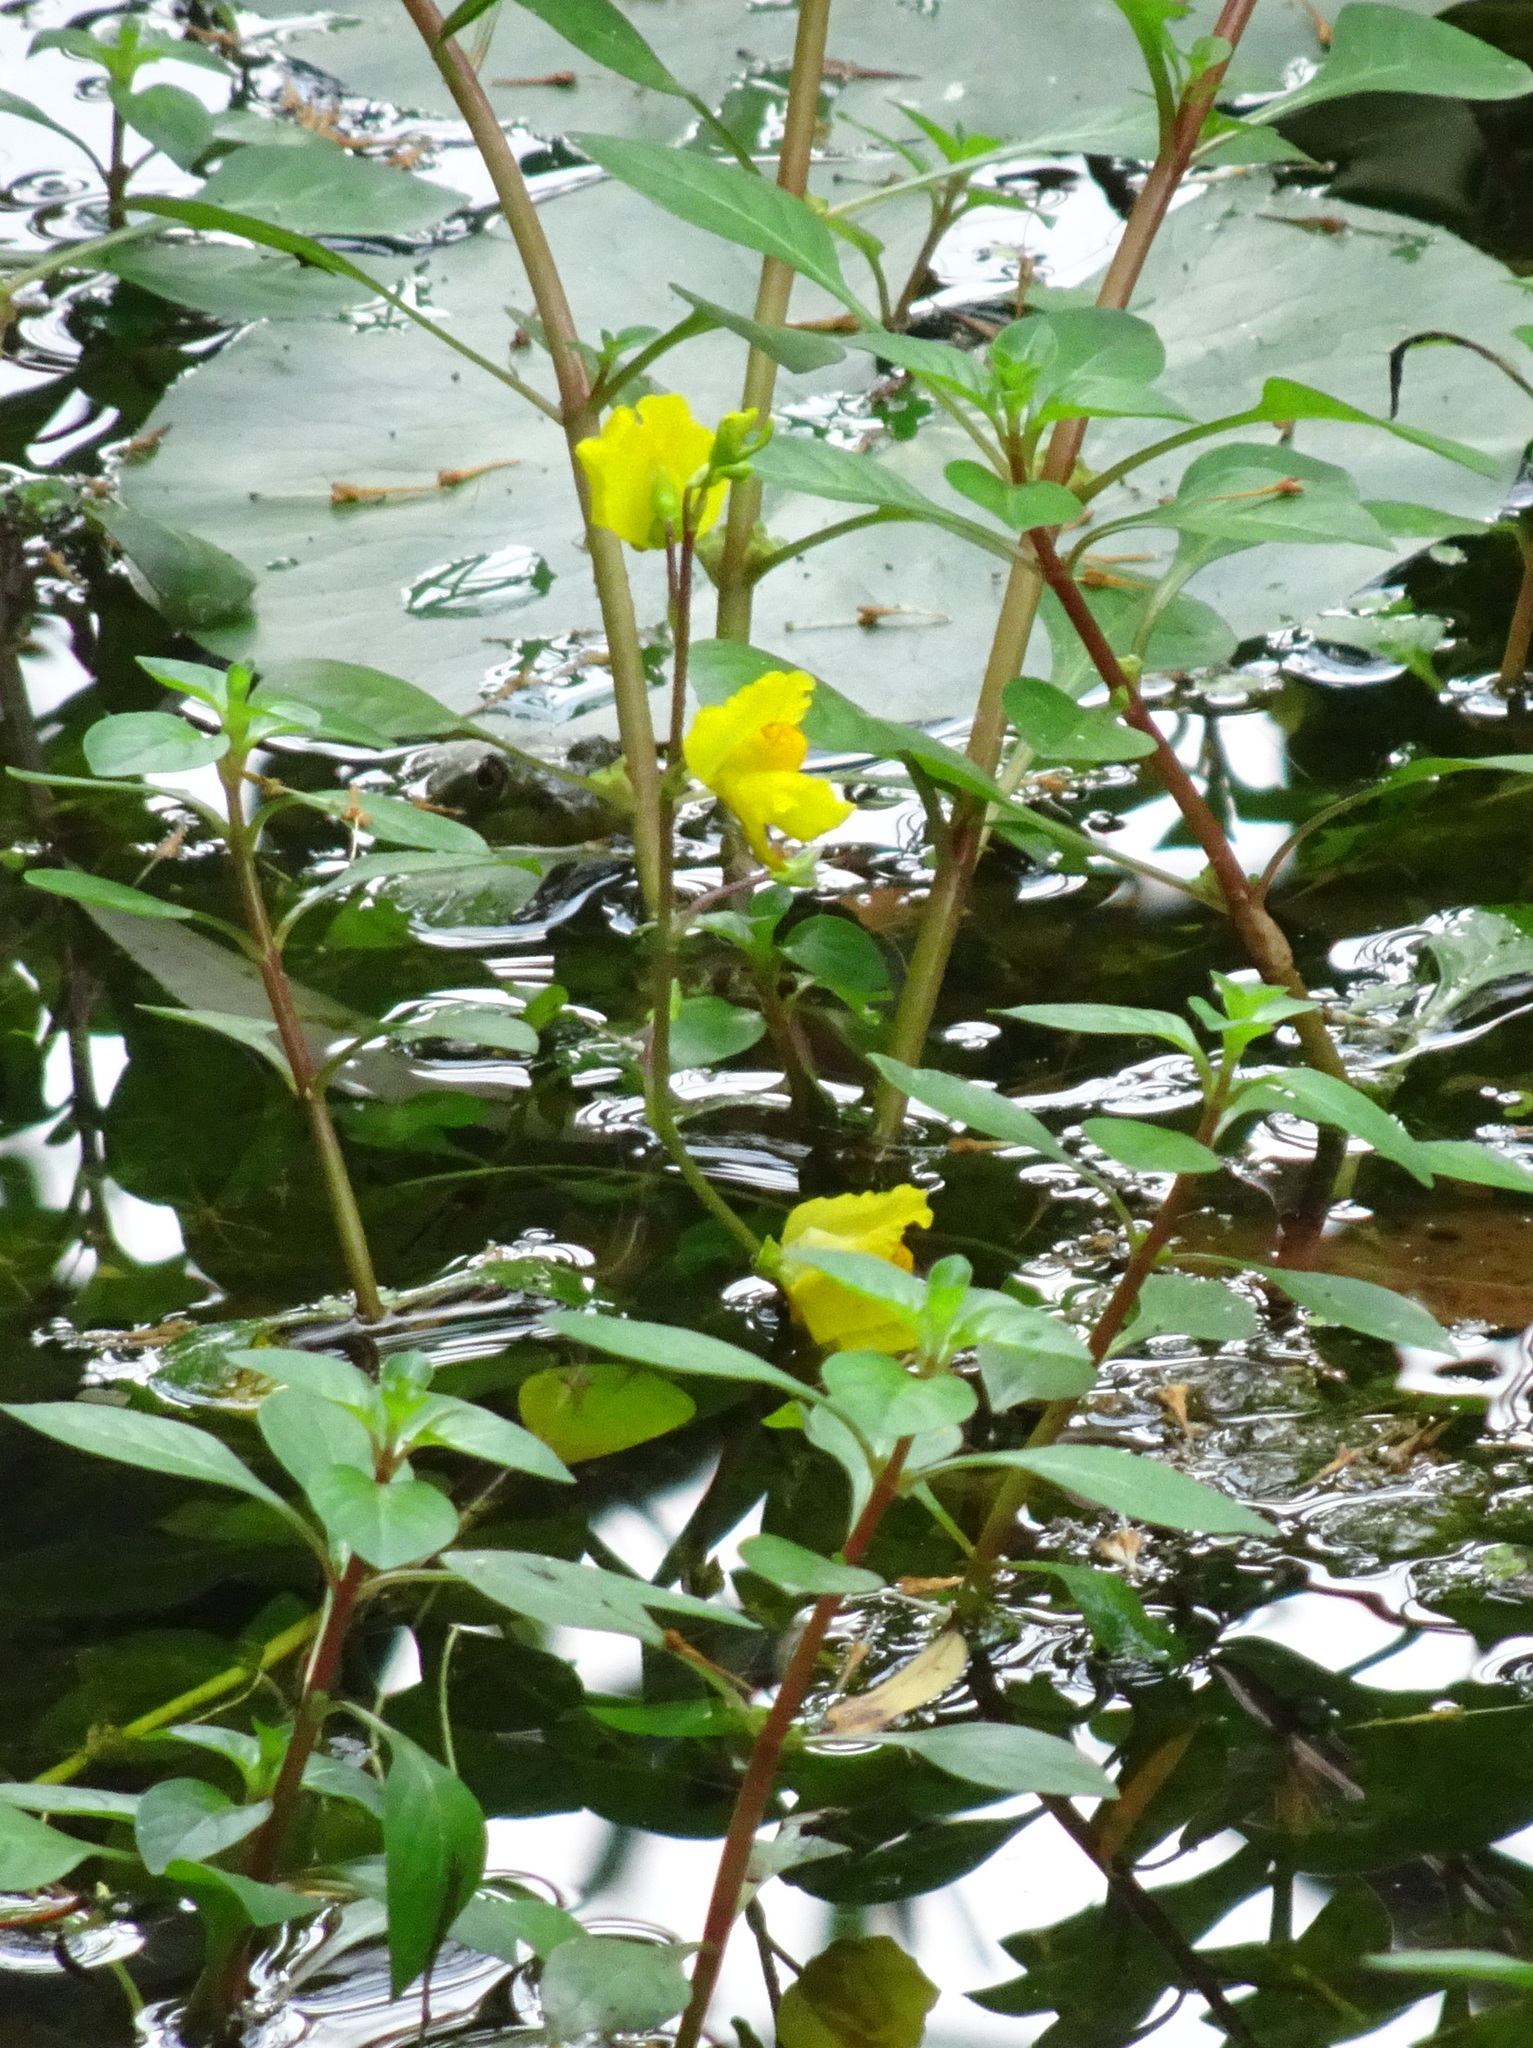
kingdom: Plantae
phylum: Tracheophyta
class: Magnoliopsida
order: Lamiales
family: Lentibulariaceae
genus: Utricularia
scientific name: Utricularia macrorhiza
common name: Common bladderwort
